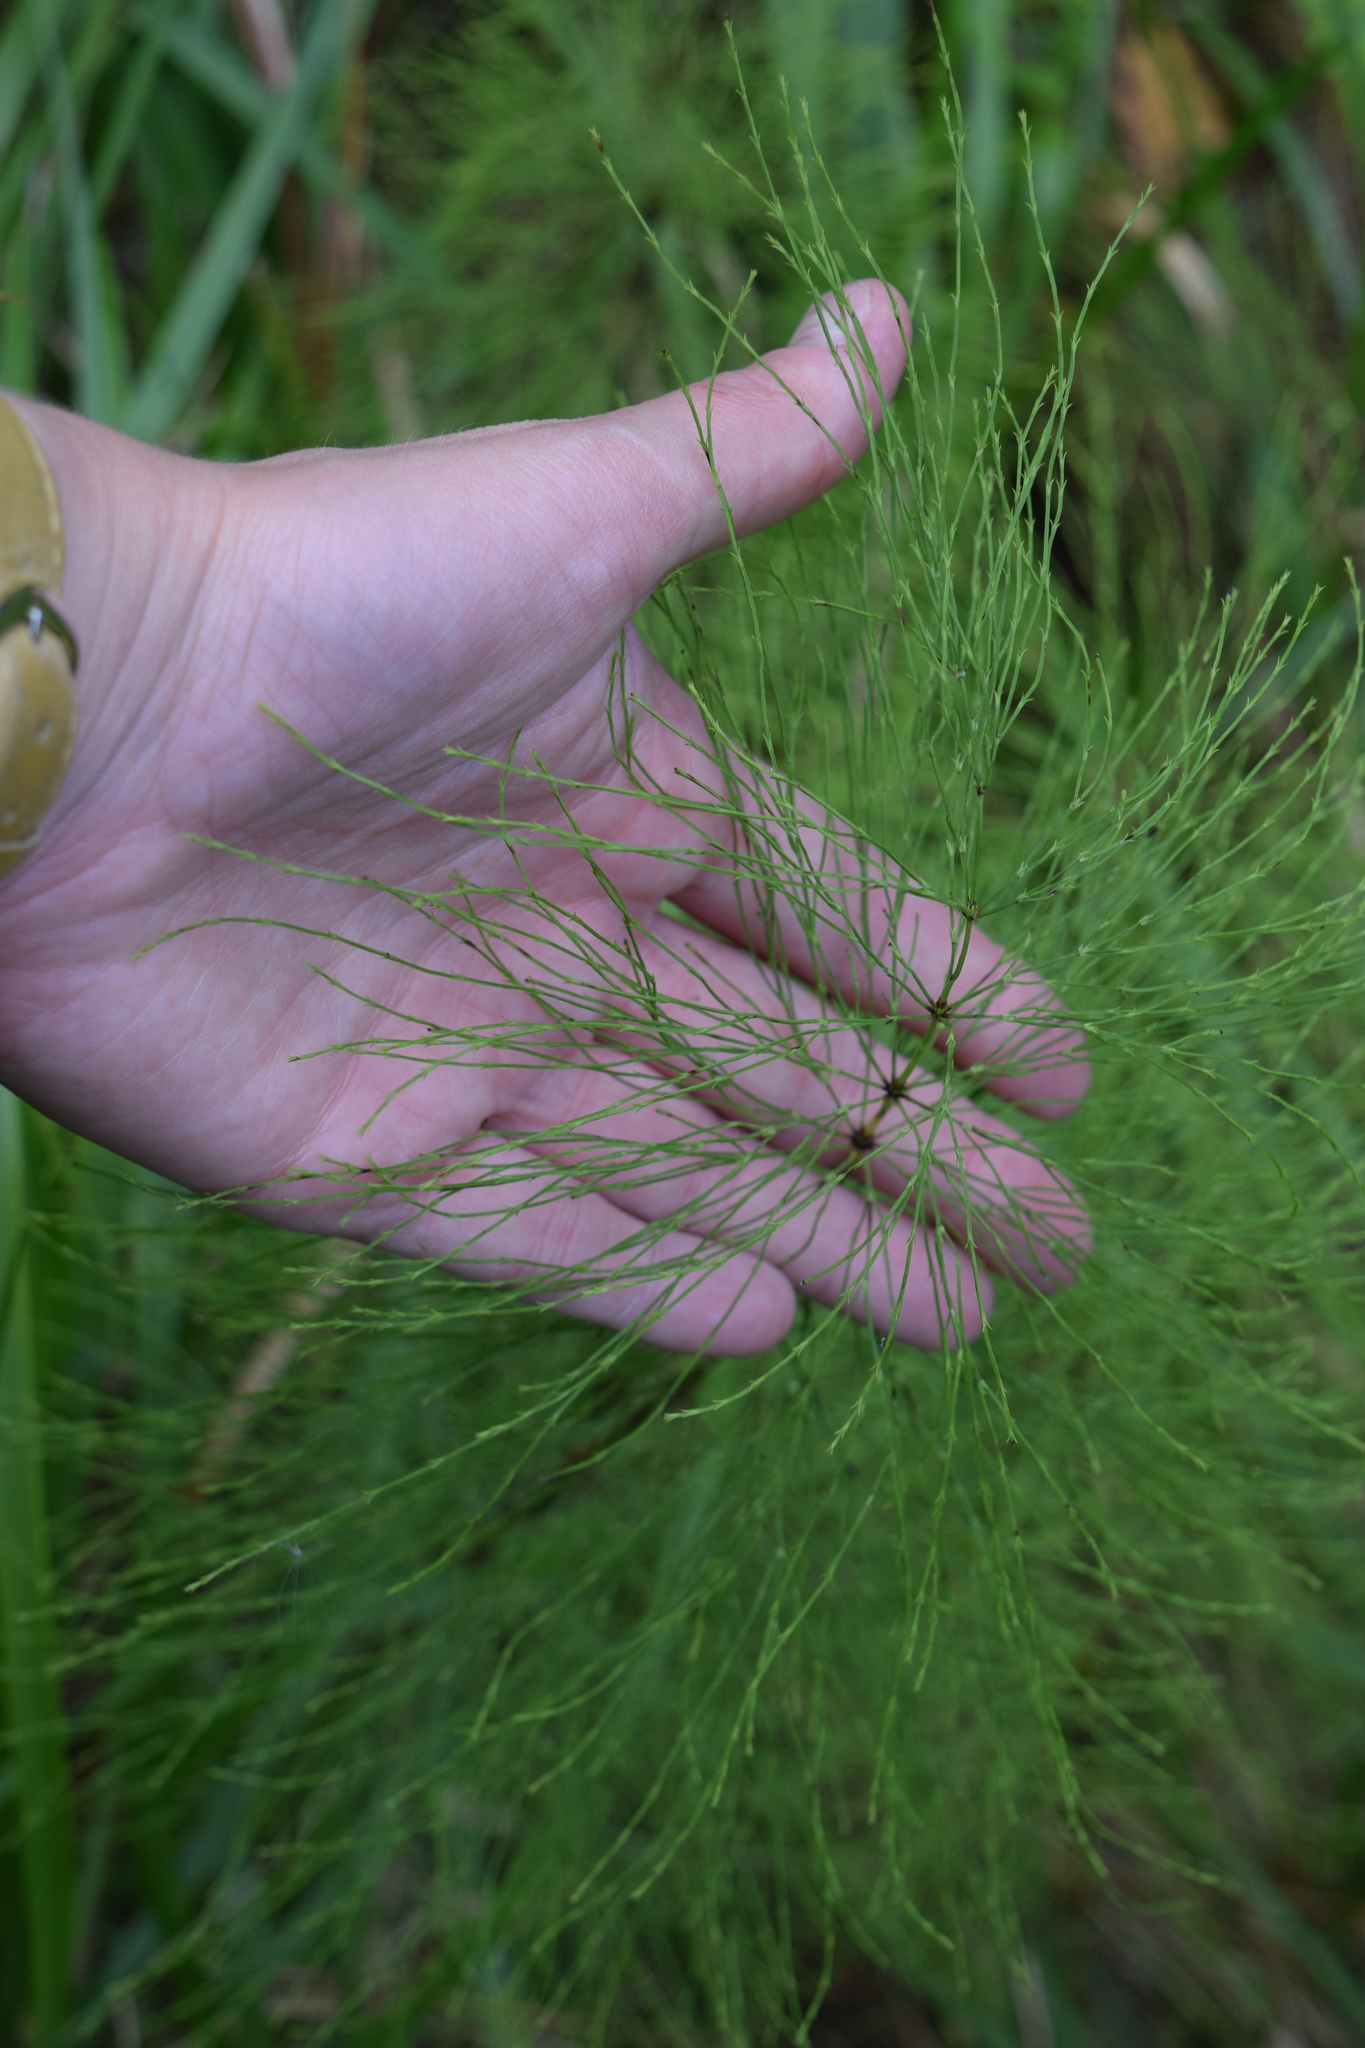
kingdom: Plantae
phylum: Tracheophyta
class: Polypodiopsida
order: Equisetales
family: Equisetaceae
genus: Equisetum
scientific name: Equisetum sylvaticum
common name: Wood horsetail
